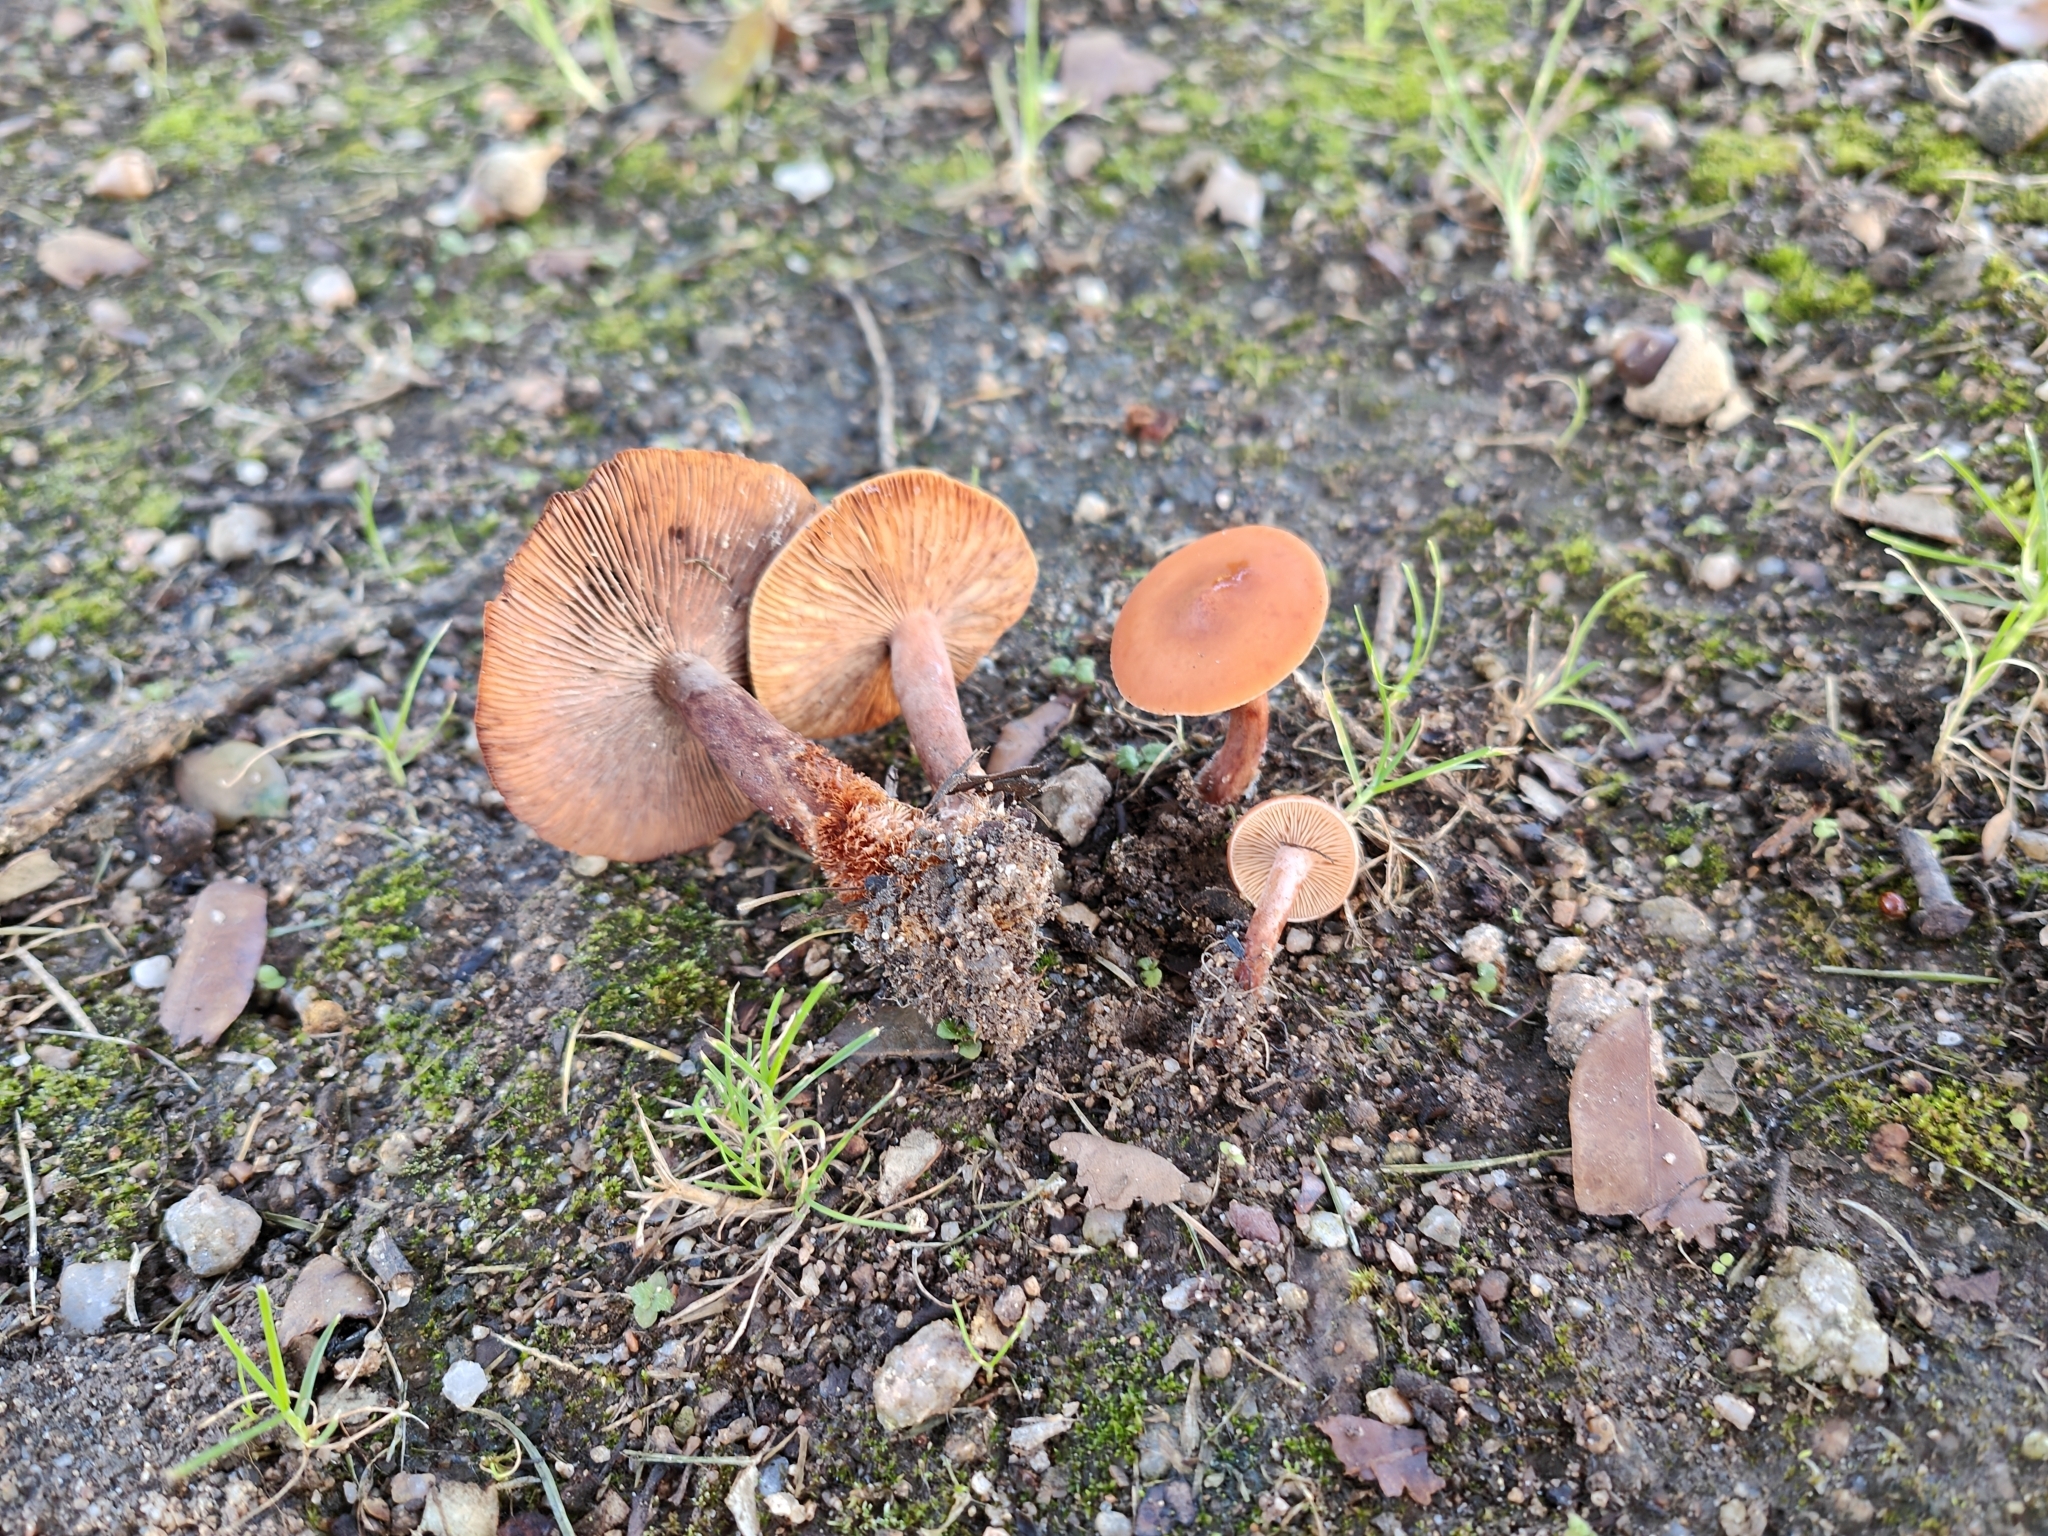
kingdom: Fungi
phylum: Basidiomycota
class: Agaricomycetes
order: Russulales
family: Russulaceae
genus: Lactarius
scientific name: Lactarius atlanticus
